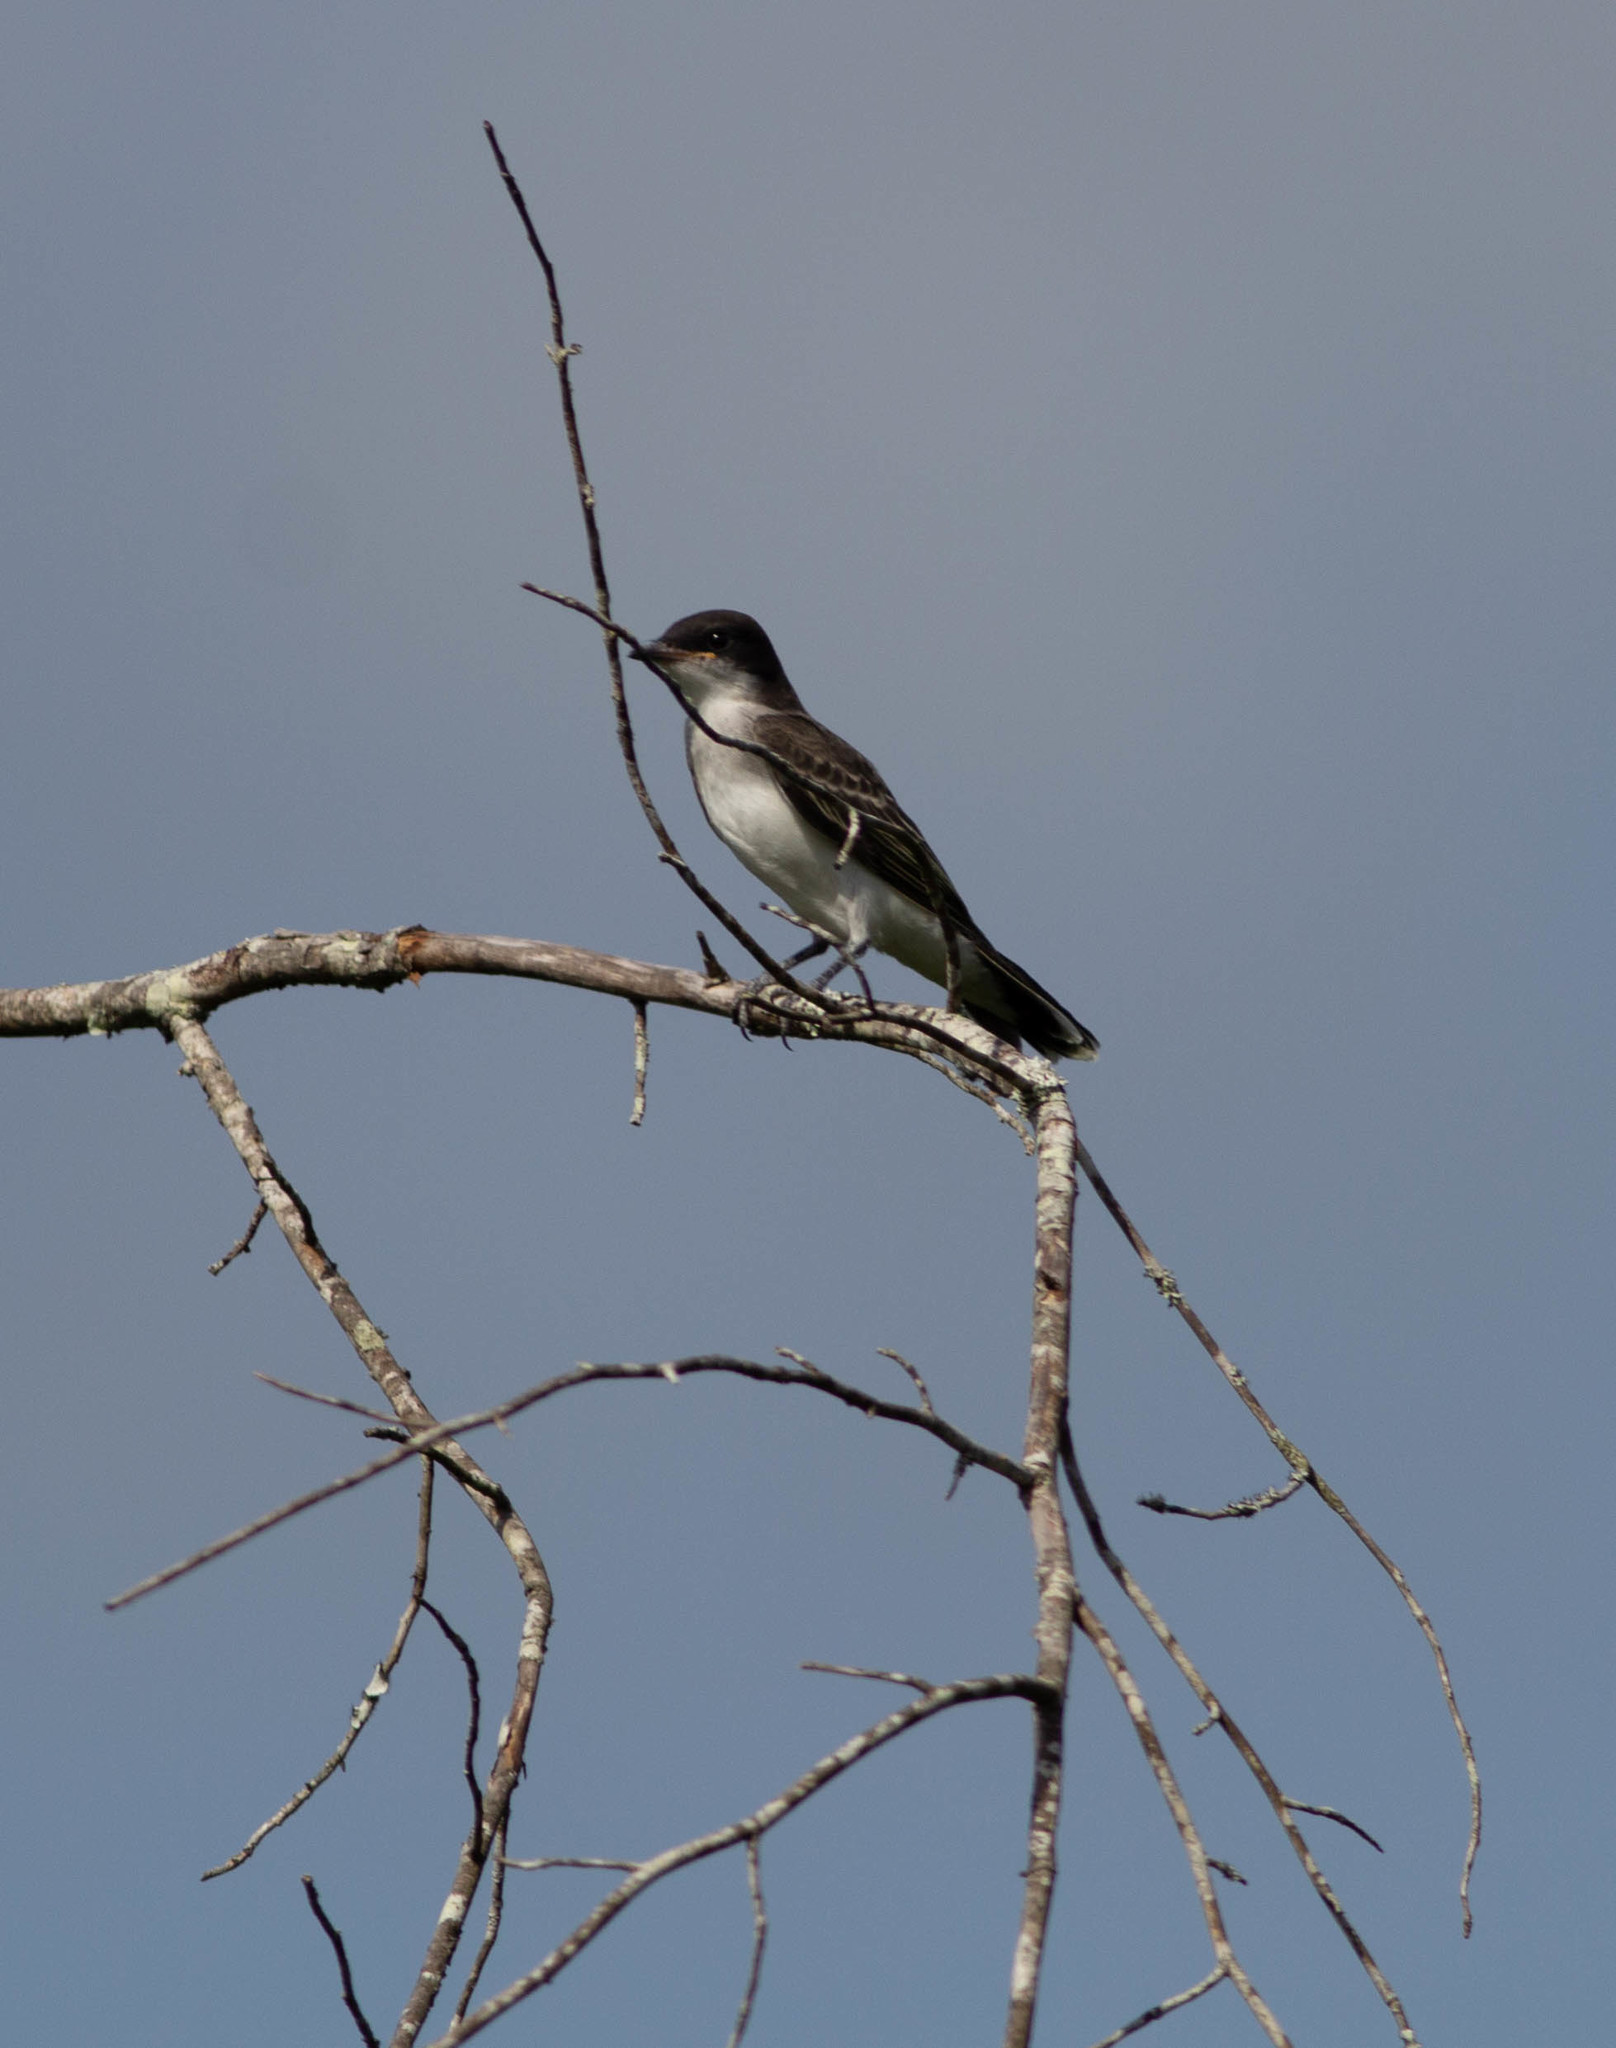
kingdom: Animalia
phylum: Chordata
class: Aves
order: Passeriformes
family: Tyrannidae
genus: Tyrannus
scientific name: Tyrannus tyrannus
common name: Eastern kingbird
